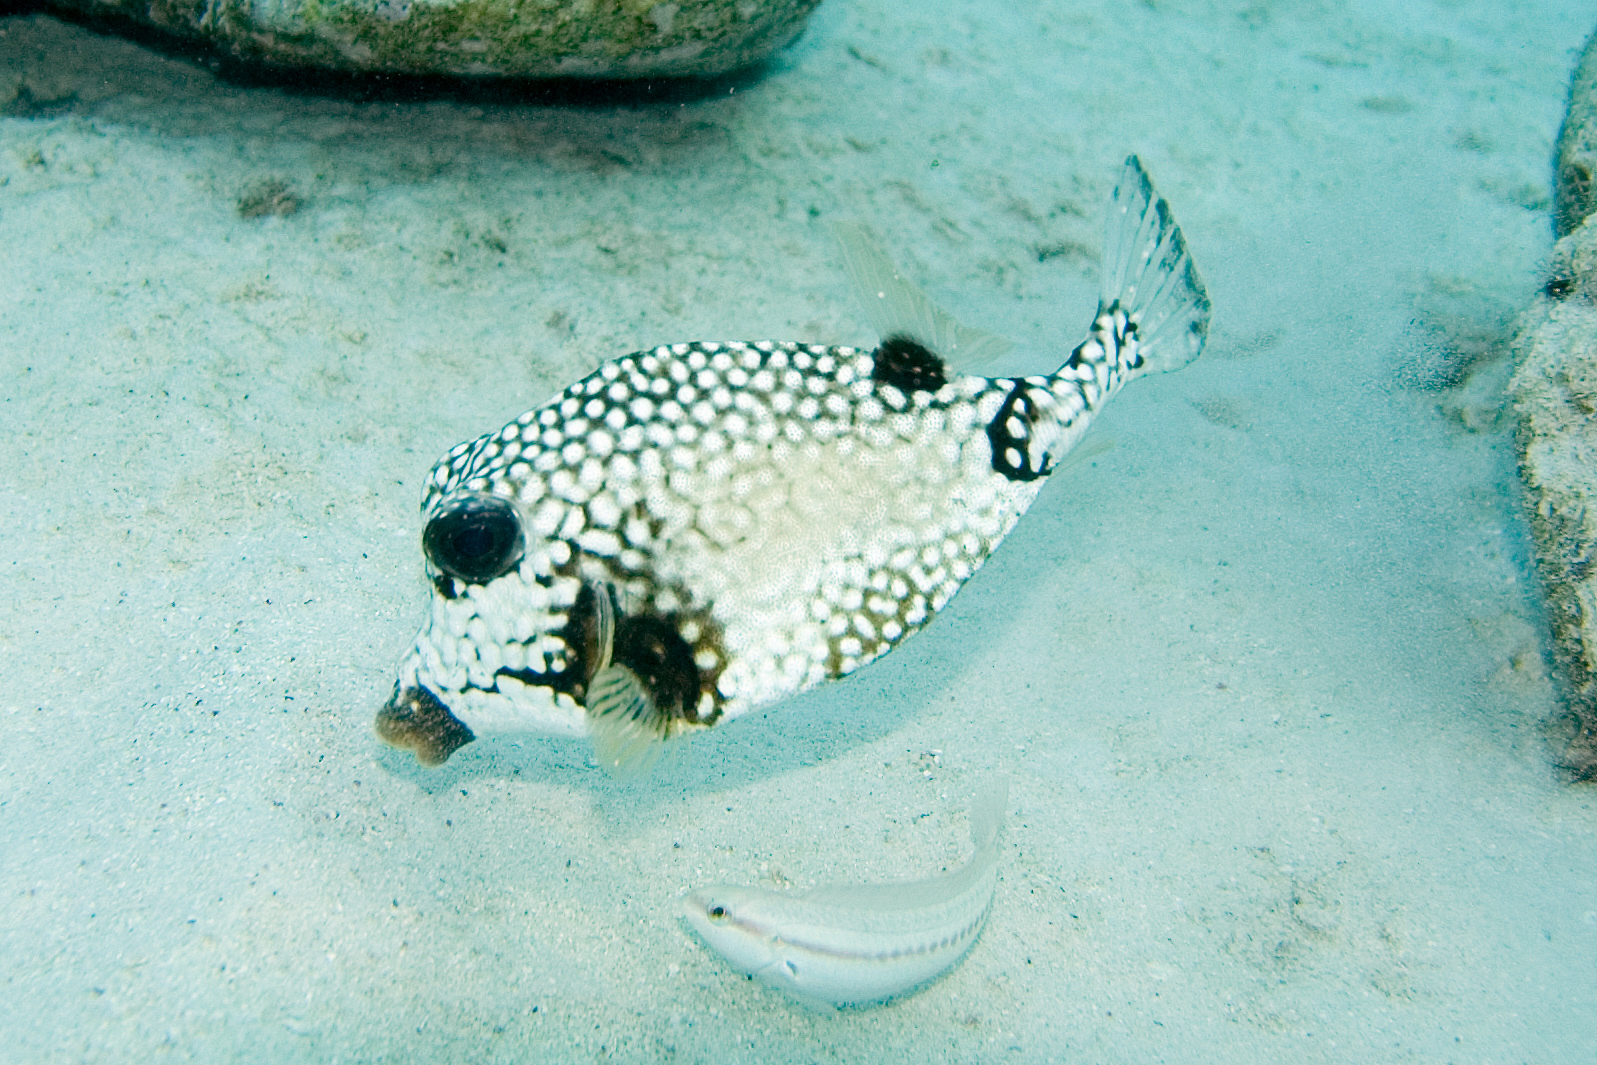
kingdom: Animalia
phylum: Chordata
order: Perciformes
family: Labridae
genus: Halichoeres
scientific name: Halichoeres bivittatus
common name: Slippery dick
